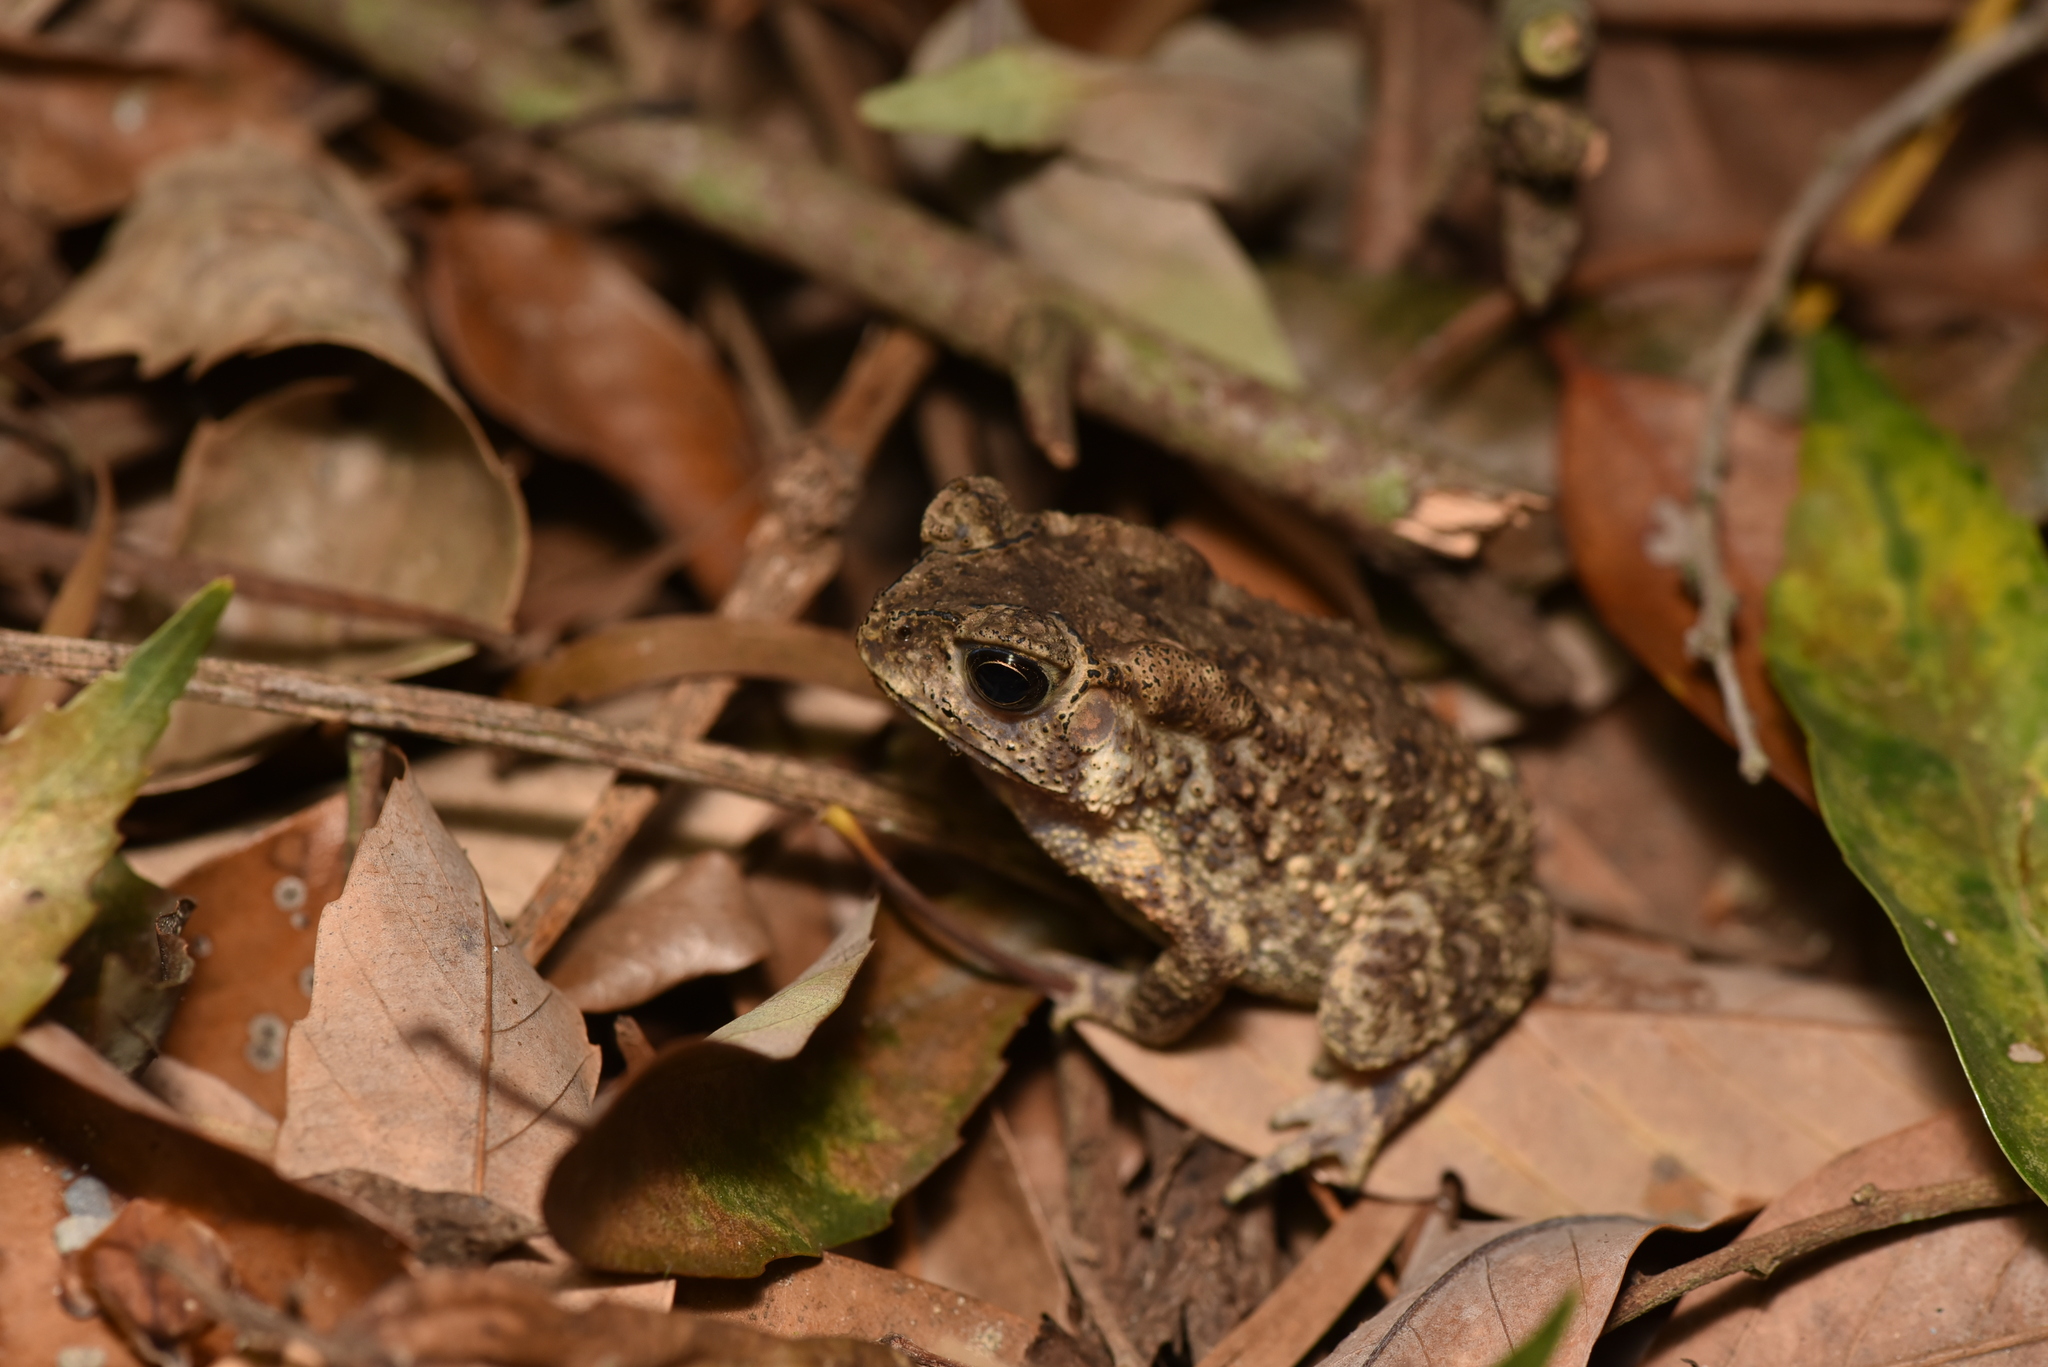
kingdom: Animalia
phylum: Chordata
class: Amphibia
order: Anura
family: Bufonidae
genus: Duttaphrynus
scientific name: Duttaphrynus melanostictus
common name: Common sunda toad
